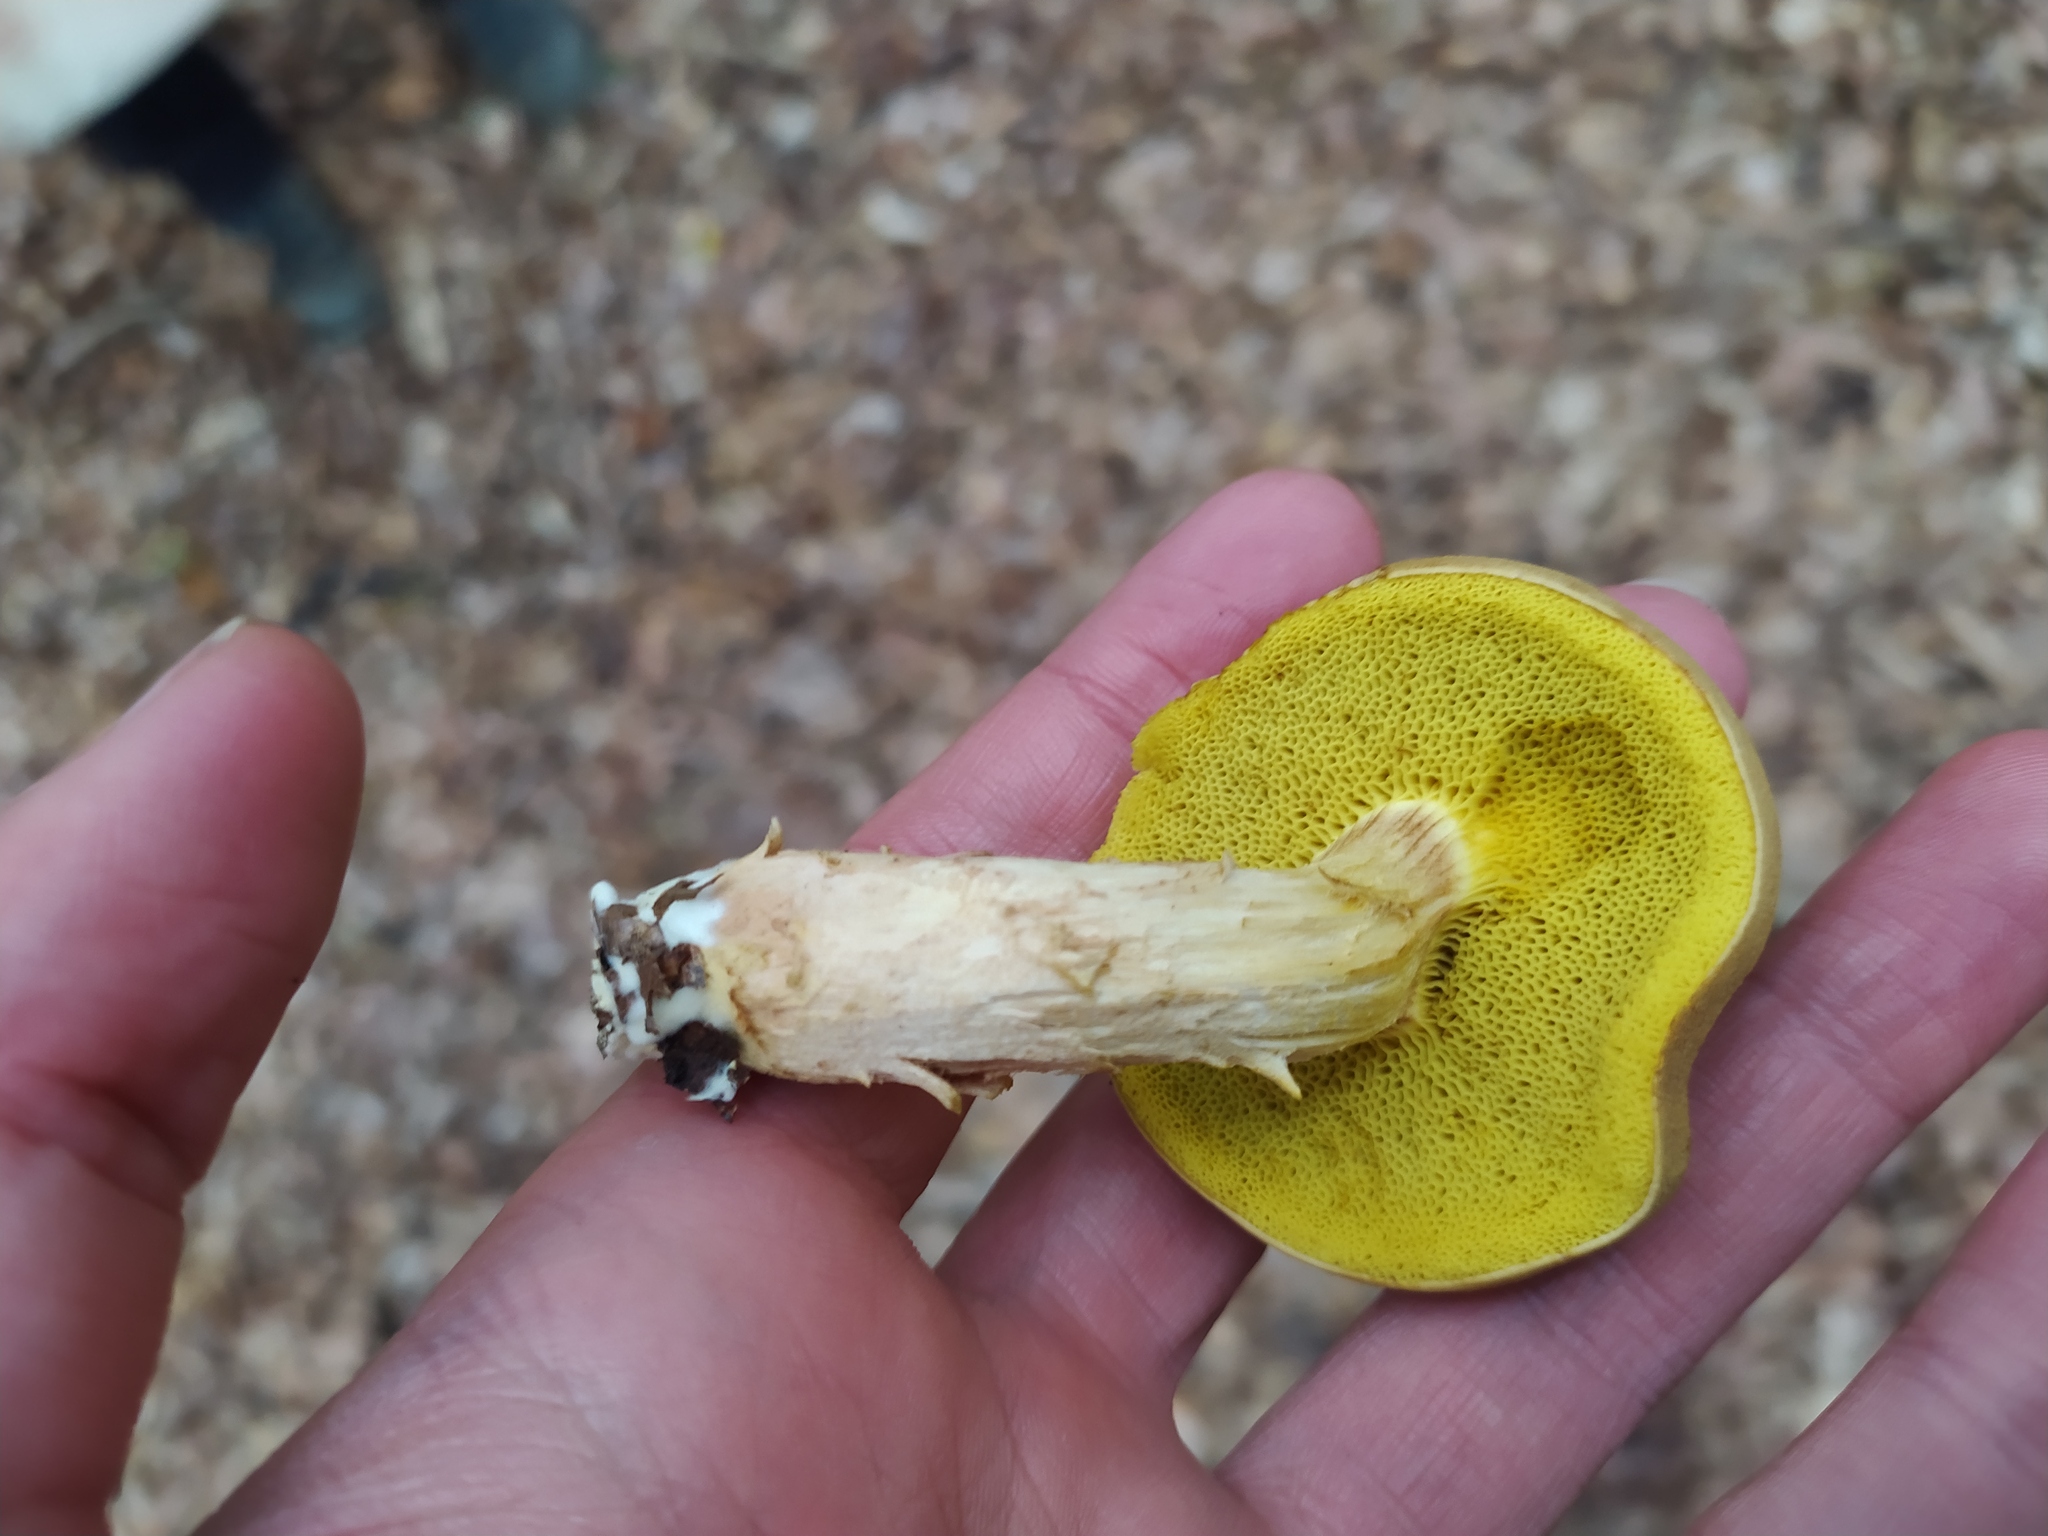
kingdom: Fungi
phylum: Basidiomycota
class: Agaricomycetes
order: Boletales
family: Boletaceae
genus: Xerocomus
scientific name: Xerocomus subtomentosus
